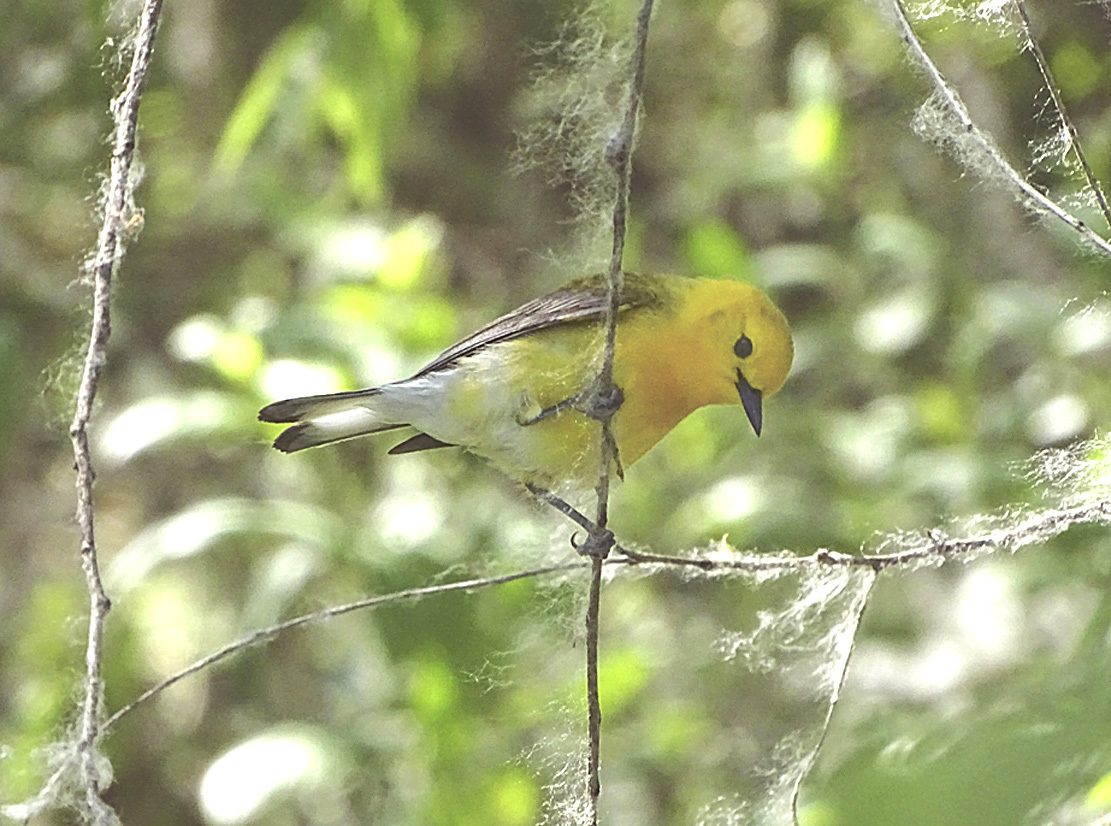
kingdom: Animalia
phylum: Chordata
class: Aves
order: Passeriformes
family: Parulidae
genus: Protonotaria
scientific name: Protonotaria citrea
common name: Prothonotary warbler
